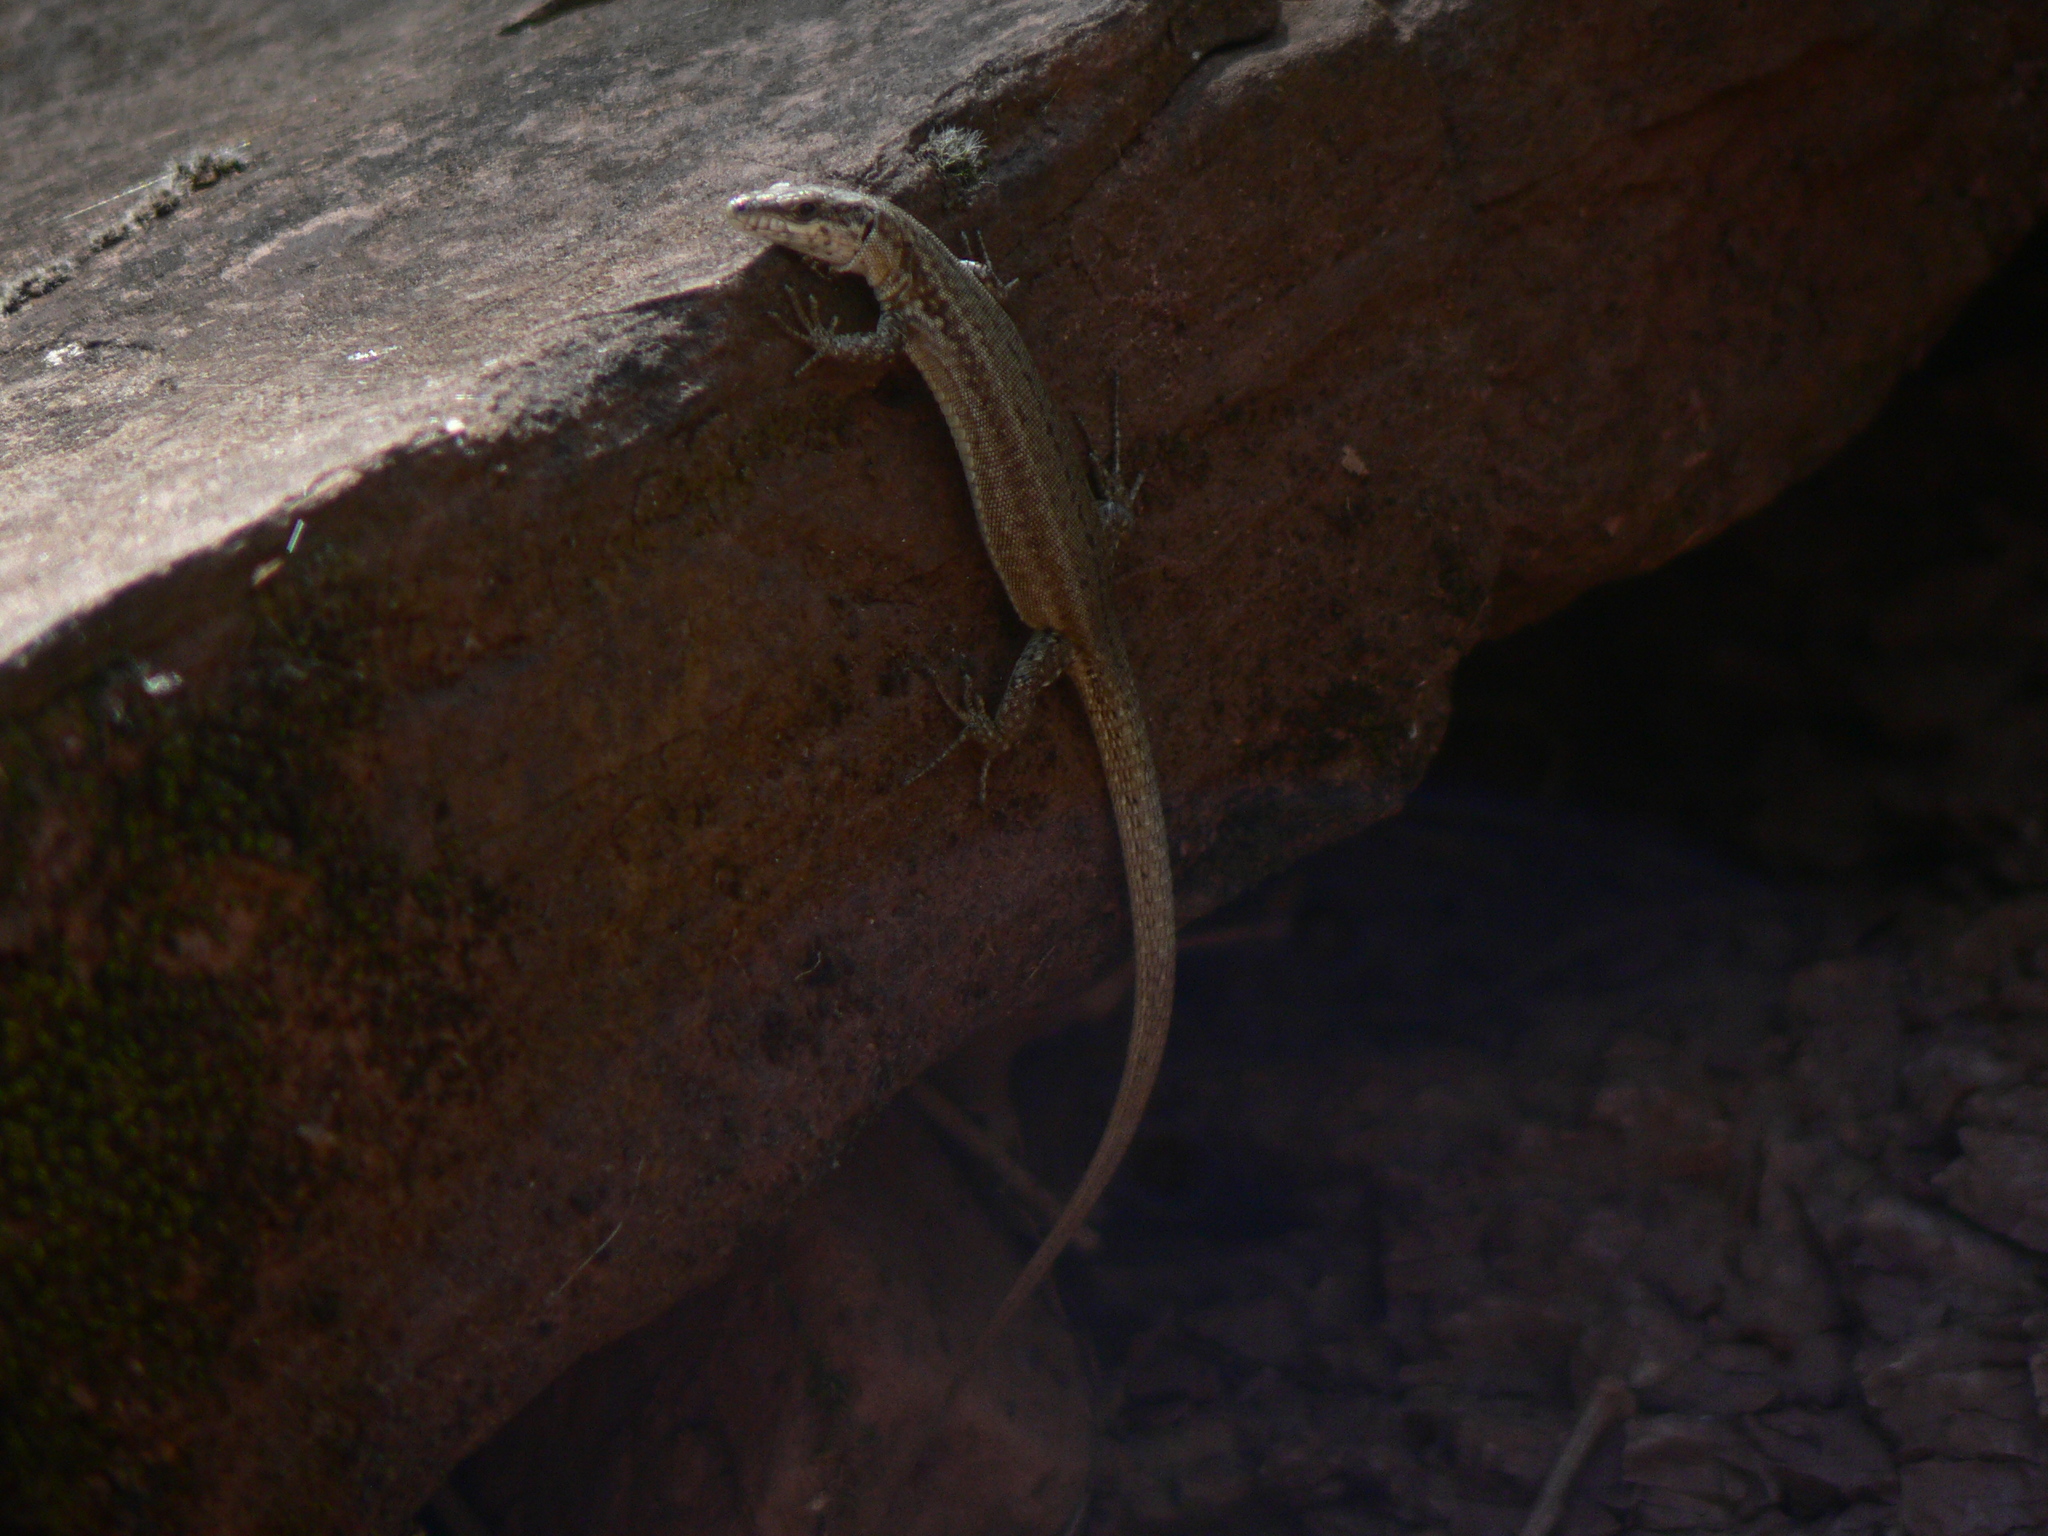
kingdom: Animalia
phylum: Chordata
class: Squamata
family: Lacertidae
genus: Podarcis
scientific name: Podarcis liolepis
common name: Catalonian wall lizard
